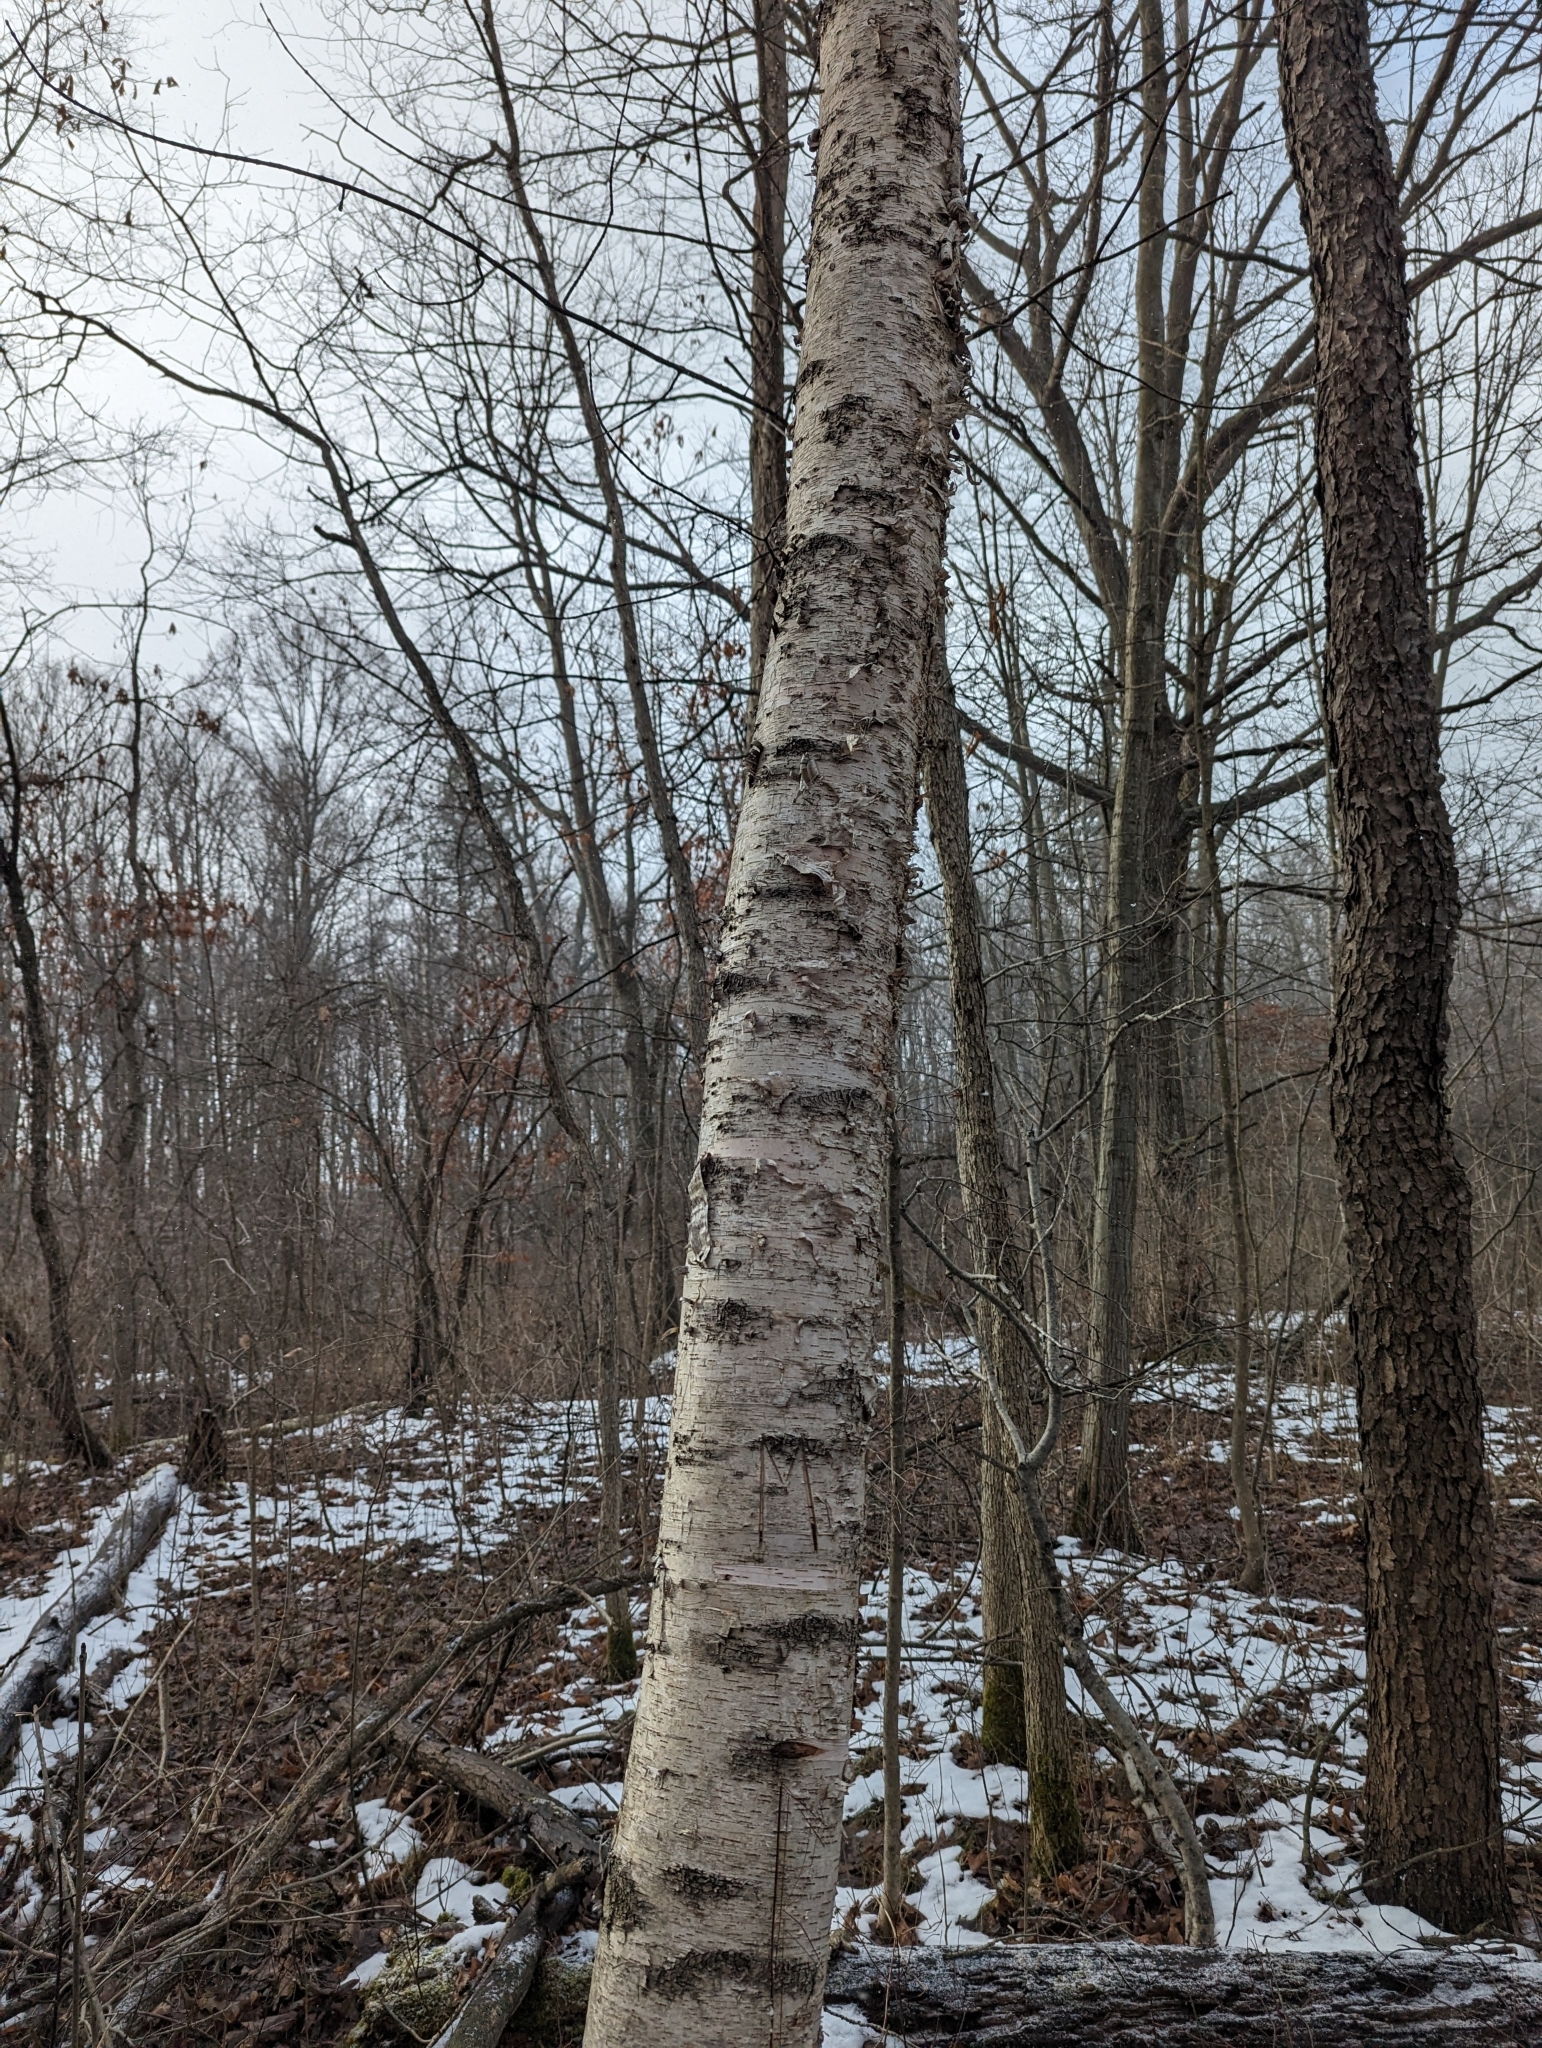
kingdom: Plantae
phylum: Tracheophyta
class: Magnoliopsida
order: Fagales
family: Betulaceae
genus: Betula
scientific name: Betula papyrifera
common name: Paper birch
